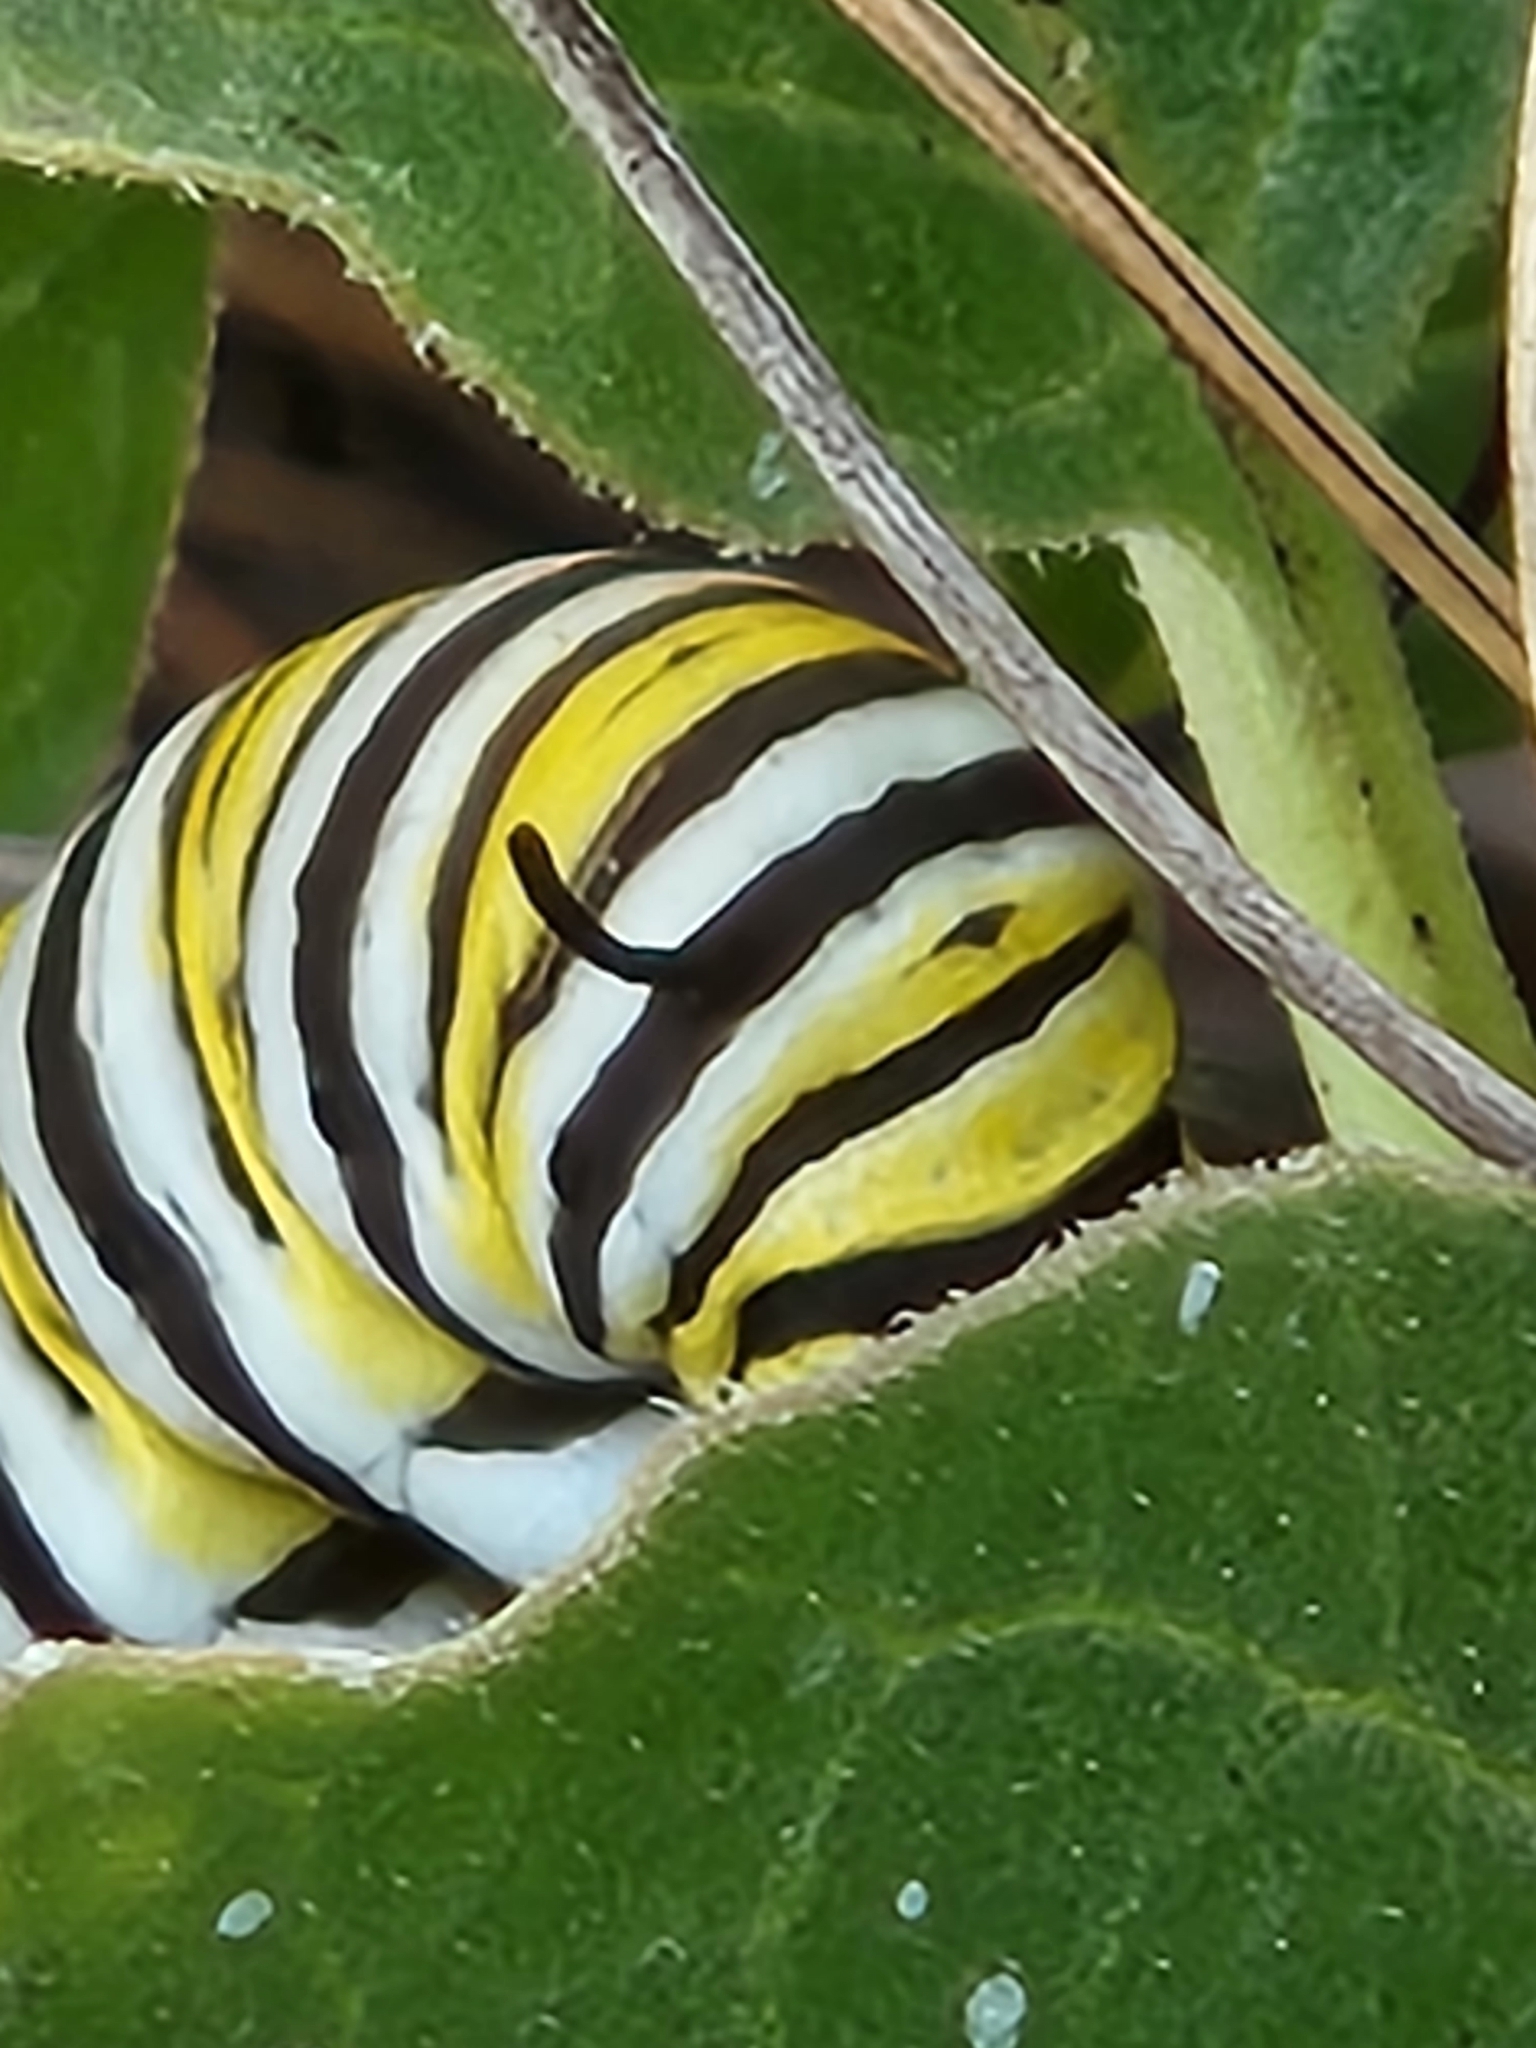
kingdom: Animalia
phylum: Arthropoda
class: Insecta
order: Lepidoptera
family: Nymphalidae
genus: Danaus
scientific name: Danaus plexippus
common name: Monarch
